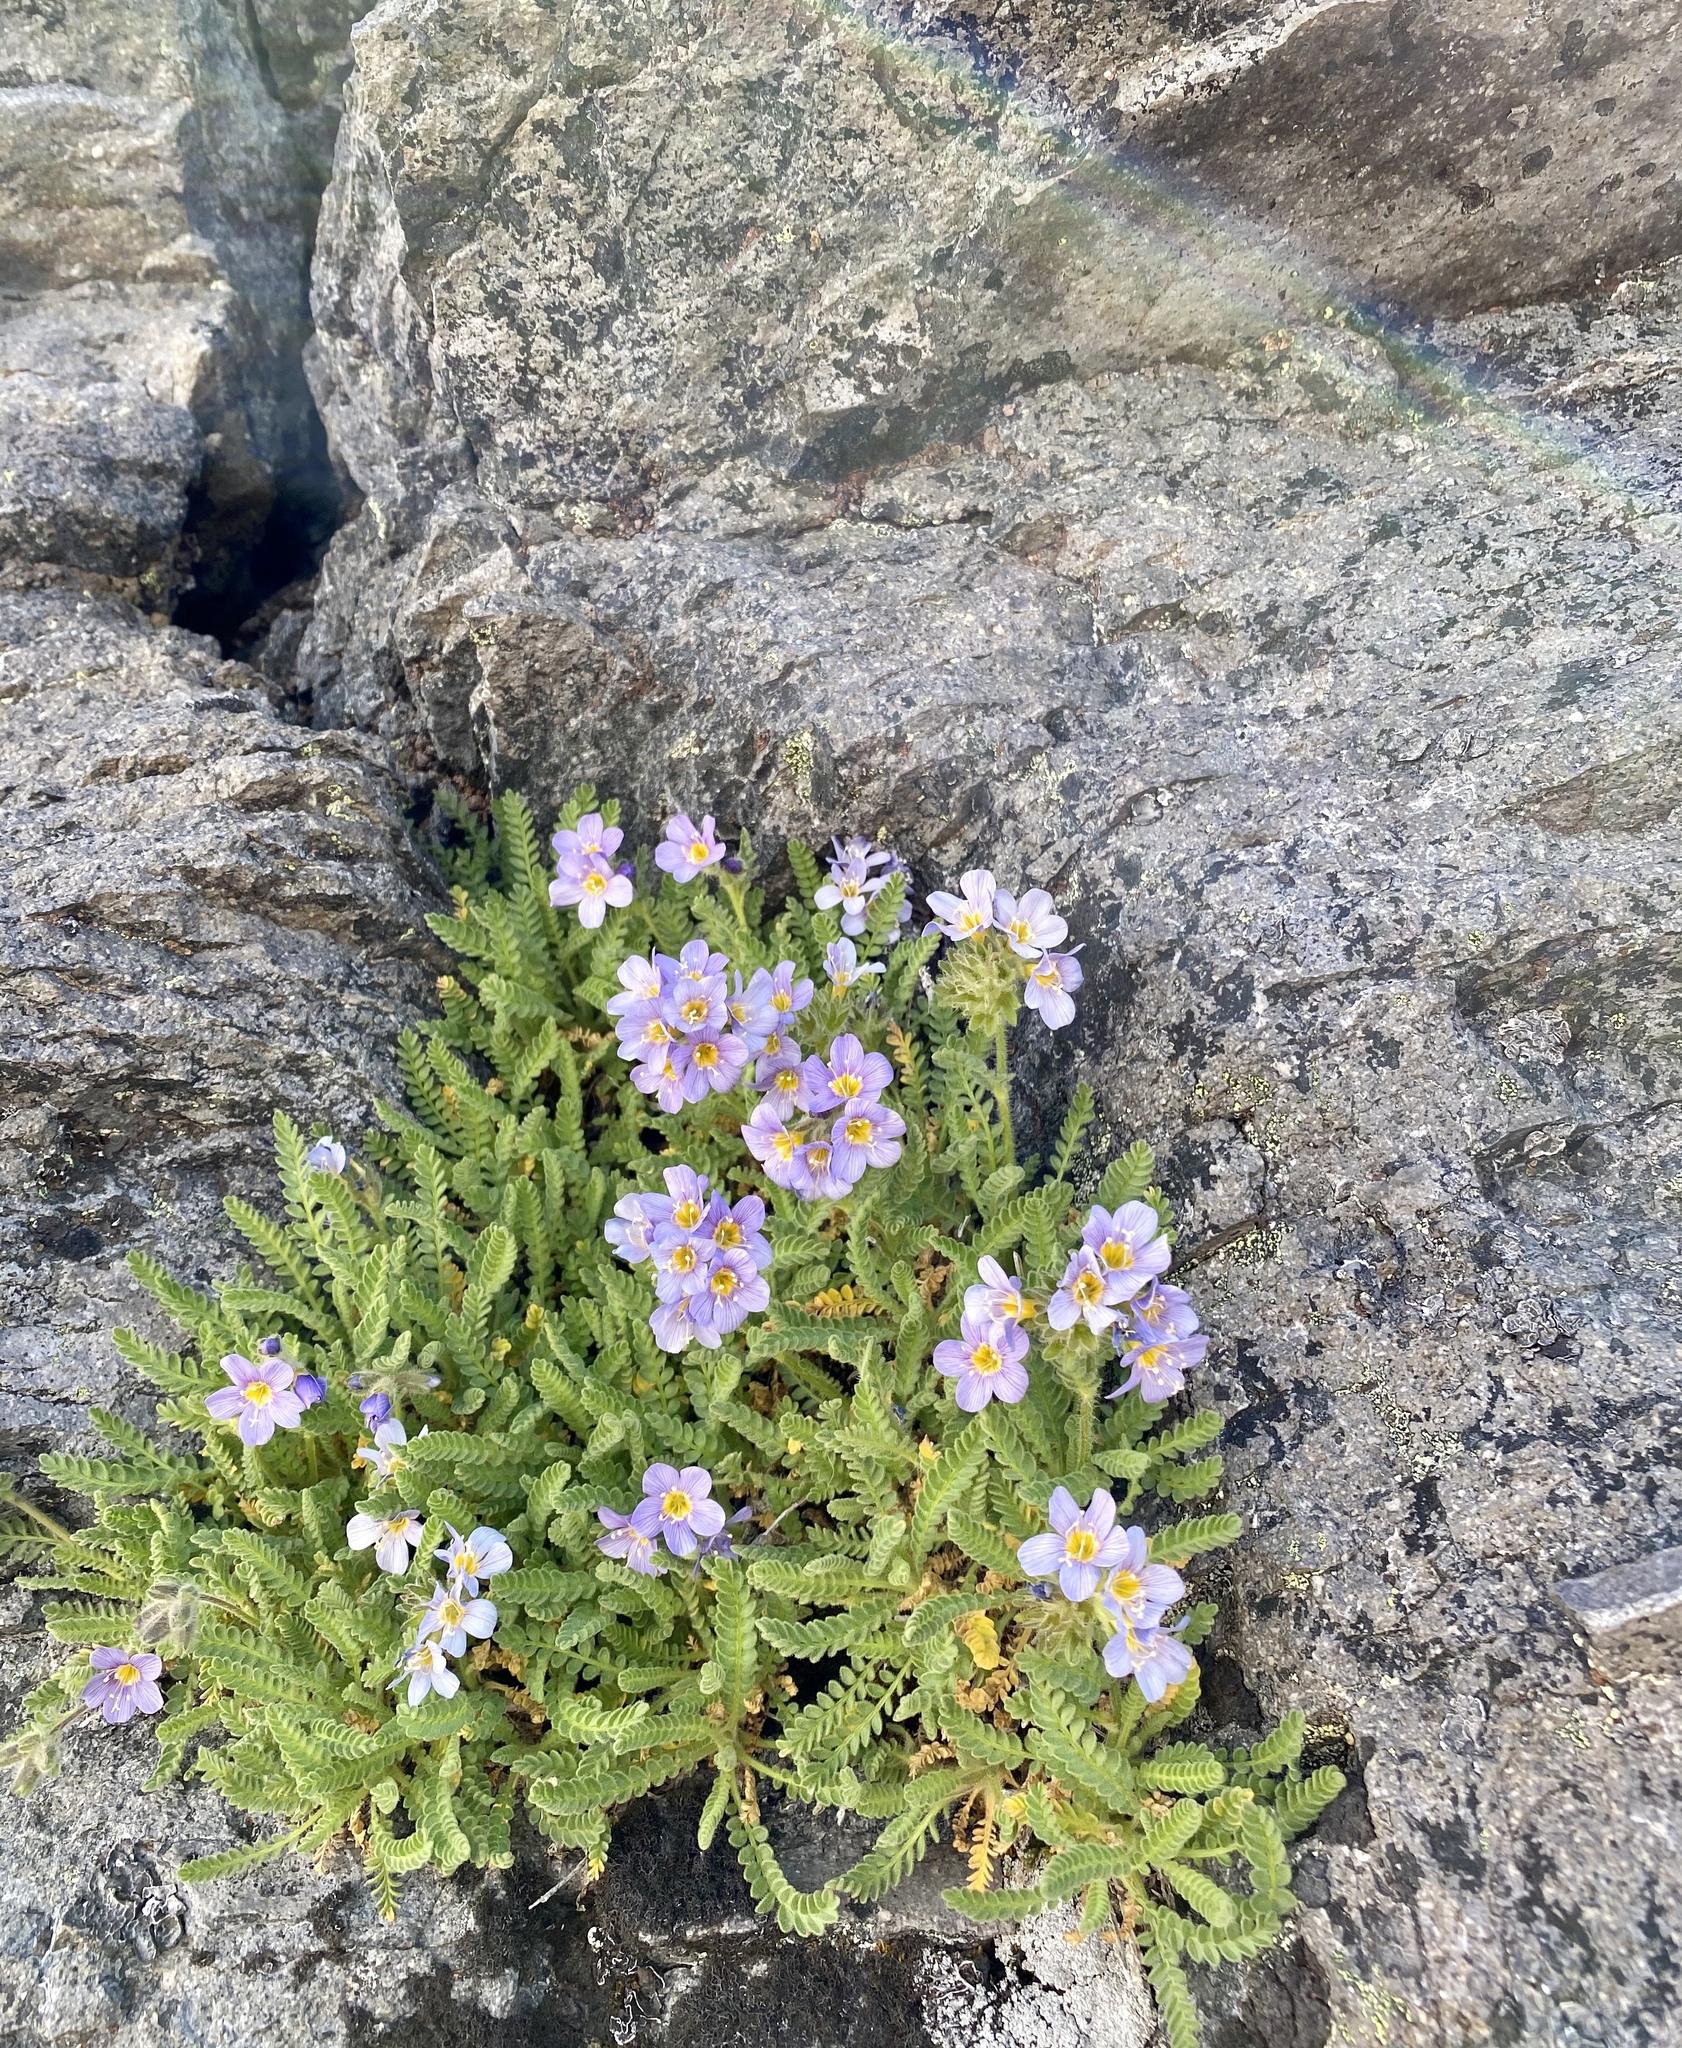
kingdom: Plantae
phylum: Tracheophyta
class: Magnoliopsida
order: Ericales
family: Polemoniaceae
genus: Polemonium
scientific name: Polemonium elegans
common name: Elegant jacob's-ladder
